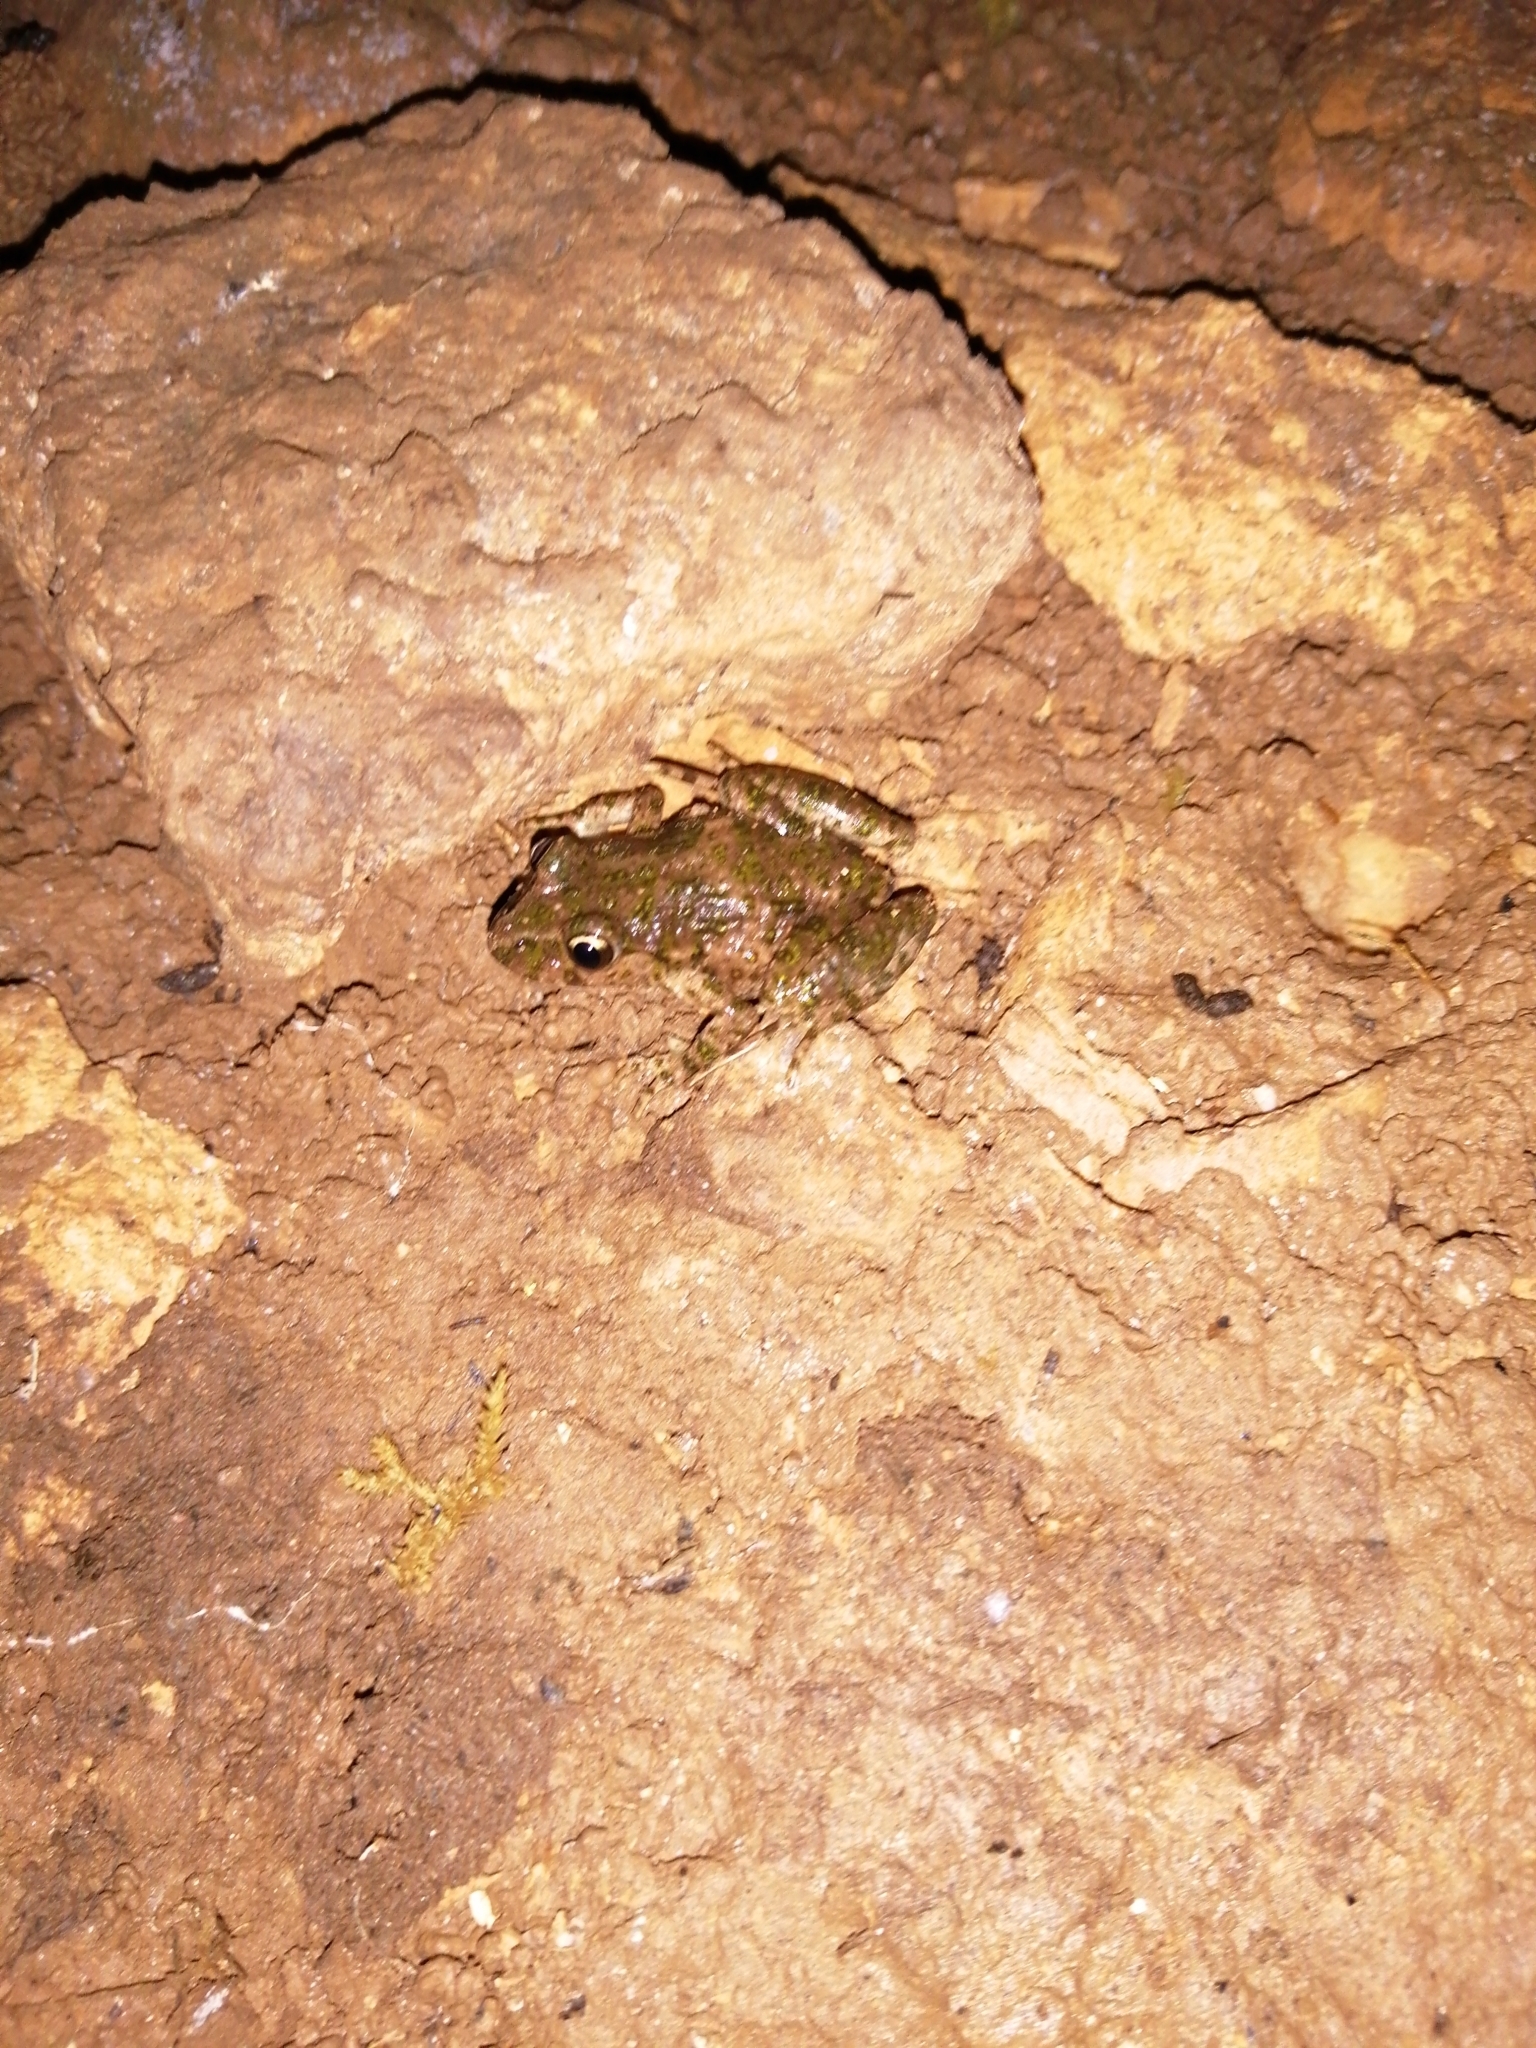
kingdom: Animalia
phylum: Chordata
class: Amphibia
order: Anura
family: Pelodytidae
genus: Pelodytes
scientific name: Pelodytes punctatus
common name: Parsley frog
